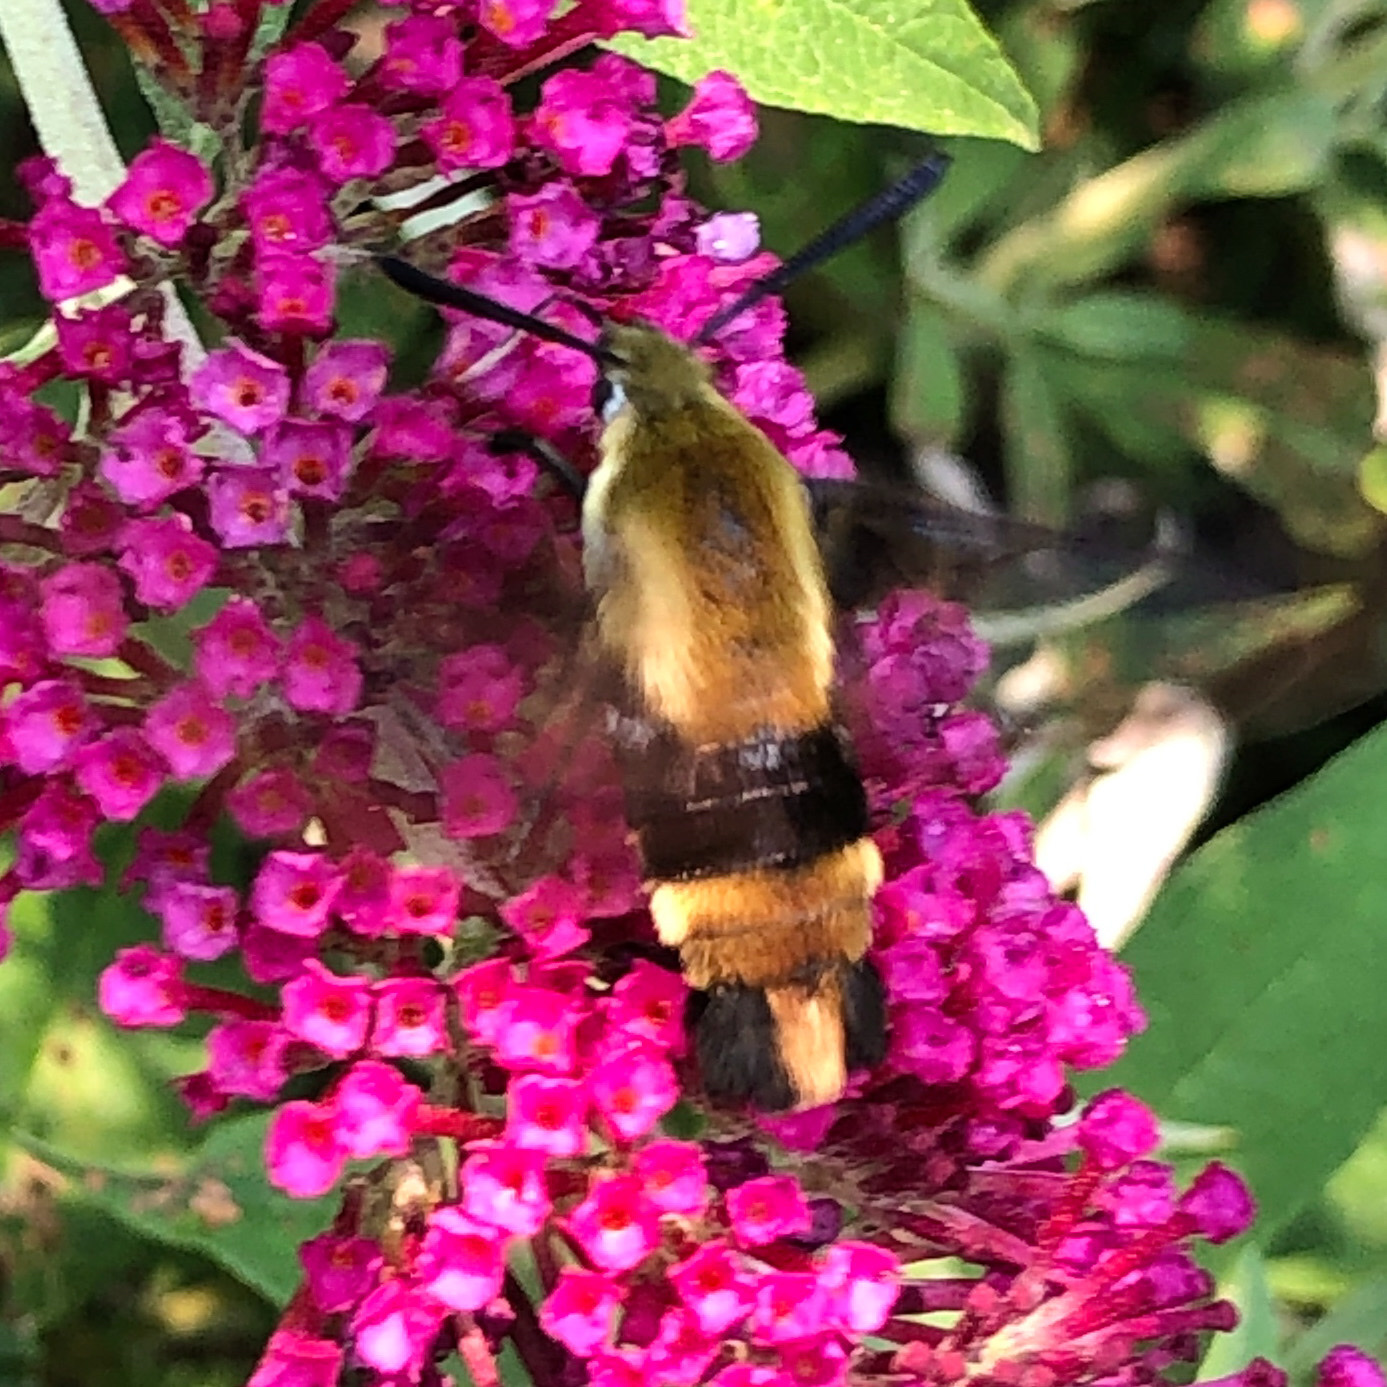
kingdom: Animalia
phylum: Arthropoda
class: Insecta
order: Lepidoptera
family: Sphingidae
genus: Hemaris
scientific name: Hemaris diffinis
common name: Bumblebee moth
